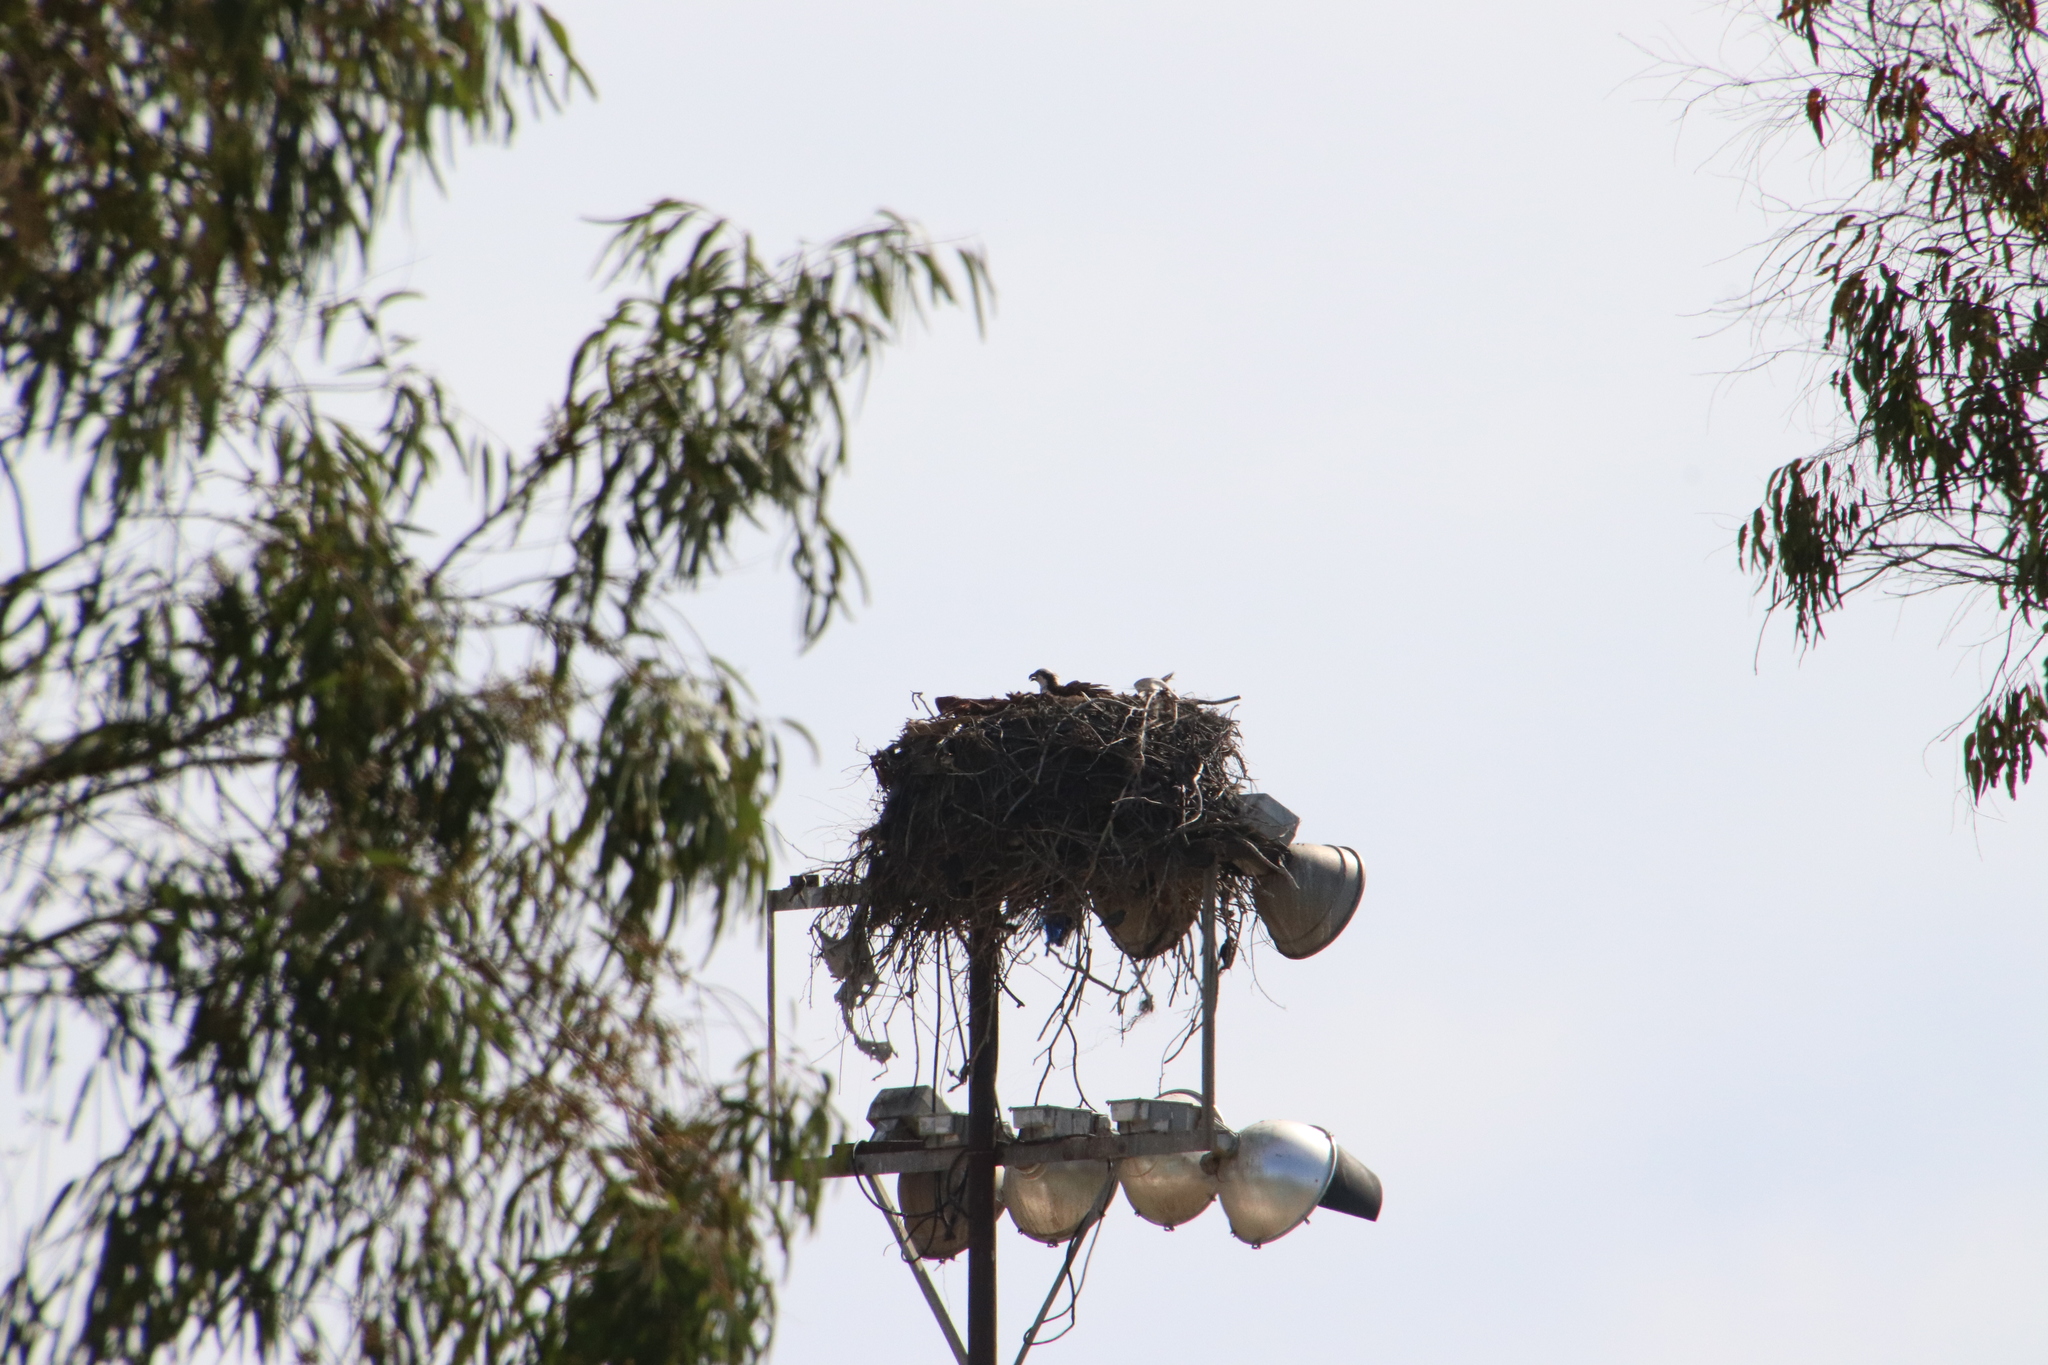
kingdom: Animalia
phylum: Chordata
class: Aves
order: Accipitriformes
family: Pandionidae
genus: Pandion
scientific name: Pandion haliaetus
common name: Osprey
